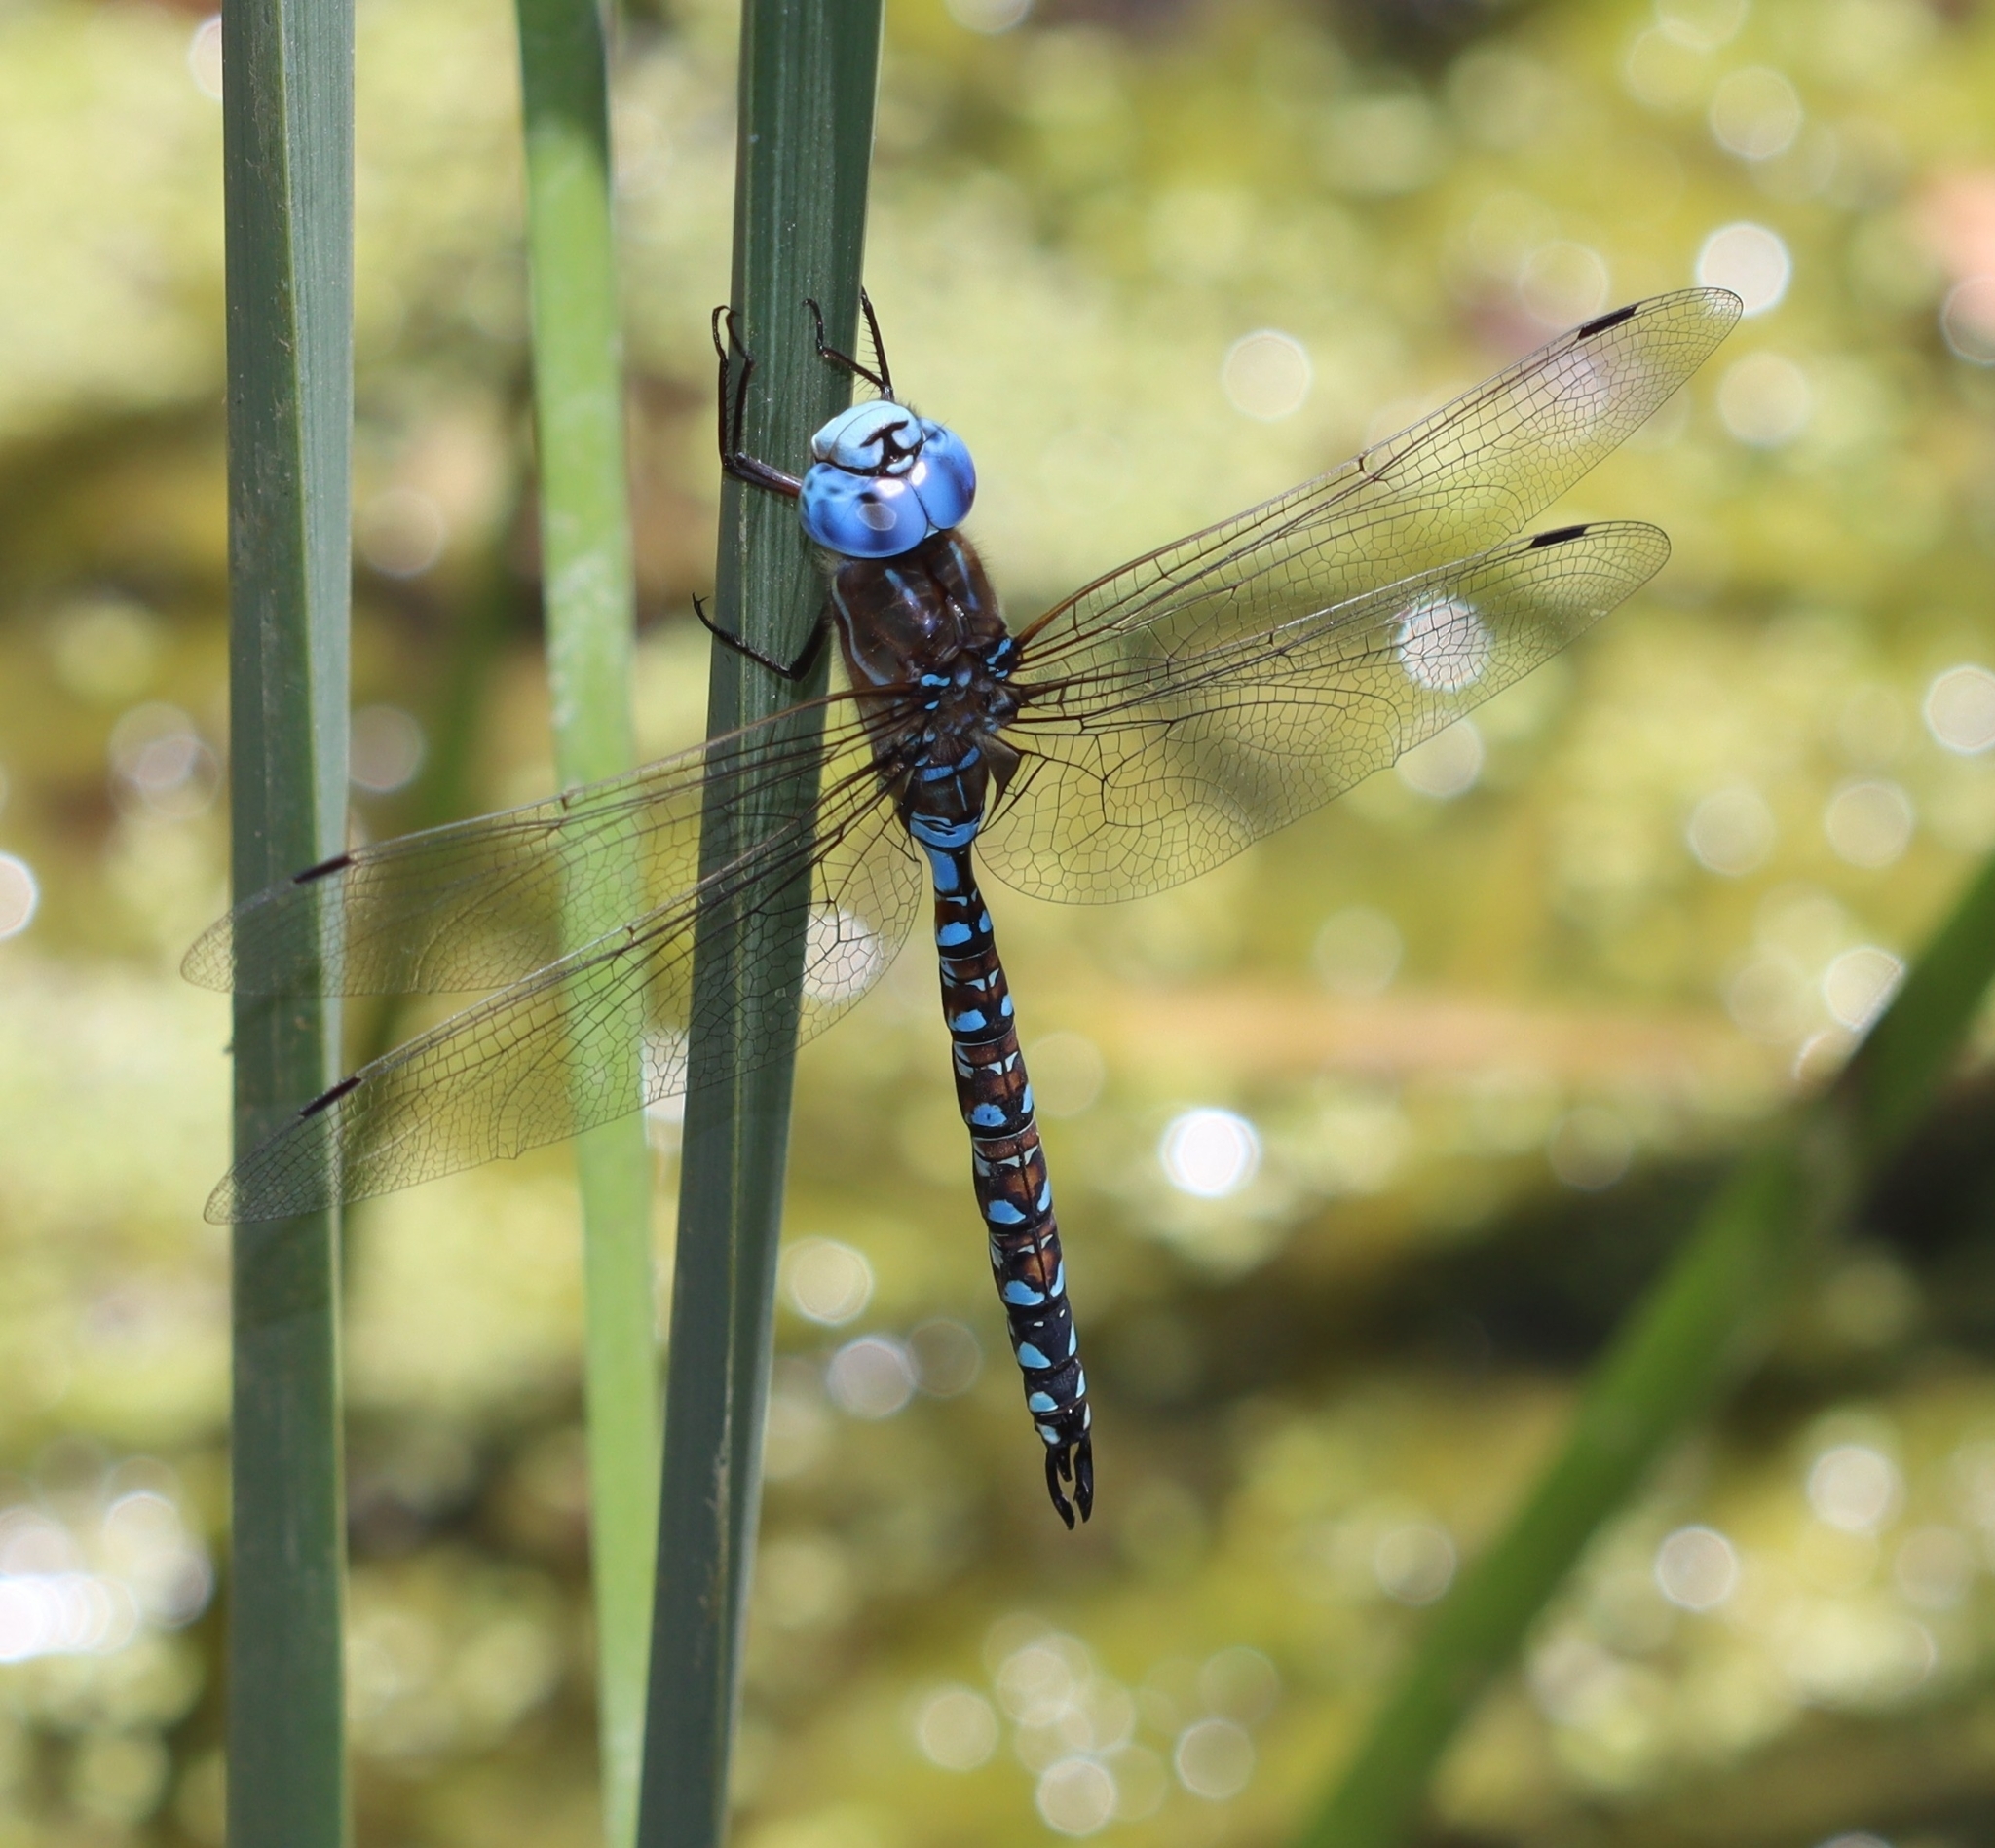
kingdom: Animalia
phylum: Arthropoda
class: Insecta
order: Odonata
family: Aeshnidae
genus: Rhionaeschna
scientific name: Rhionaeschna multicolor
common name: Blue-eyed darner
